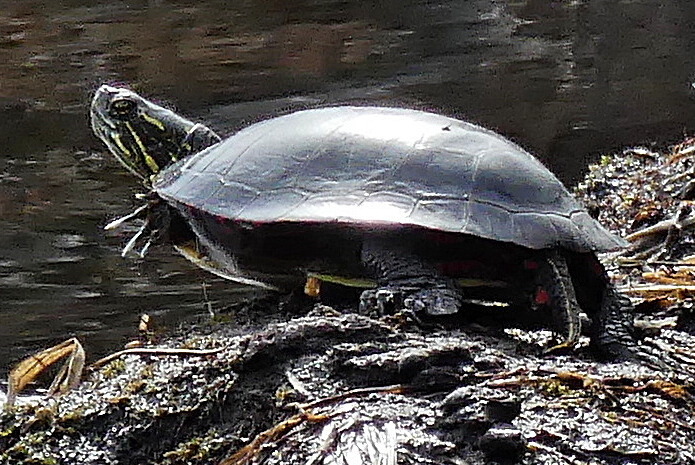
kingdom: Animalia
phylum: Chordata
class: Testudines
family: Emydidae
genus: Chrysemys
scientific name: Chrysemys picta
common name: Painted turtle
